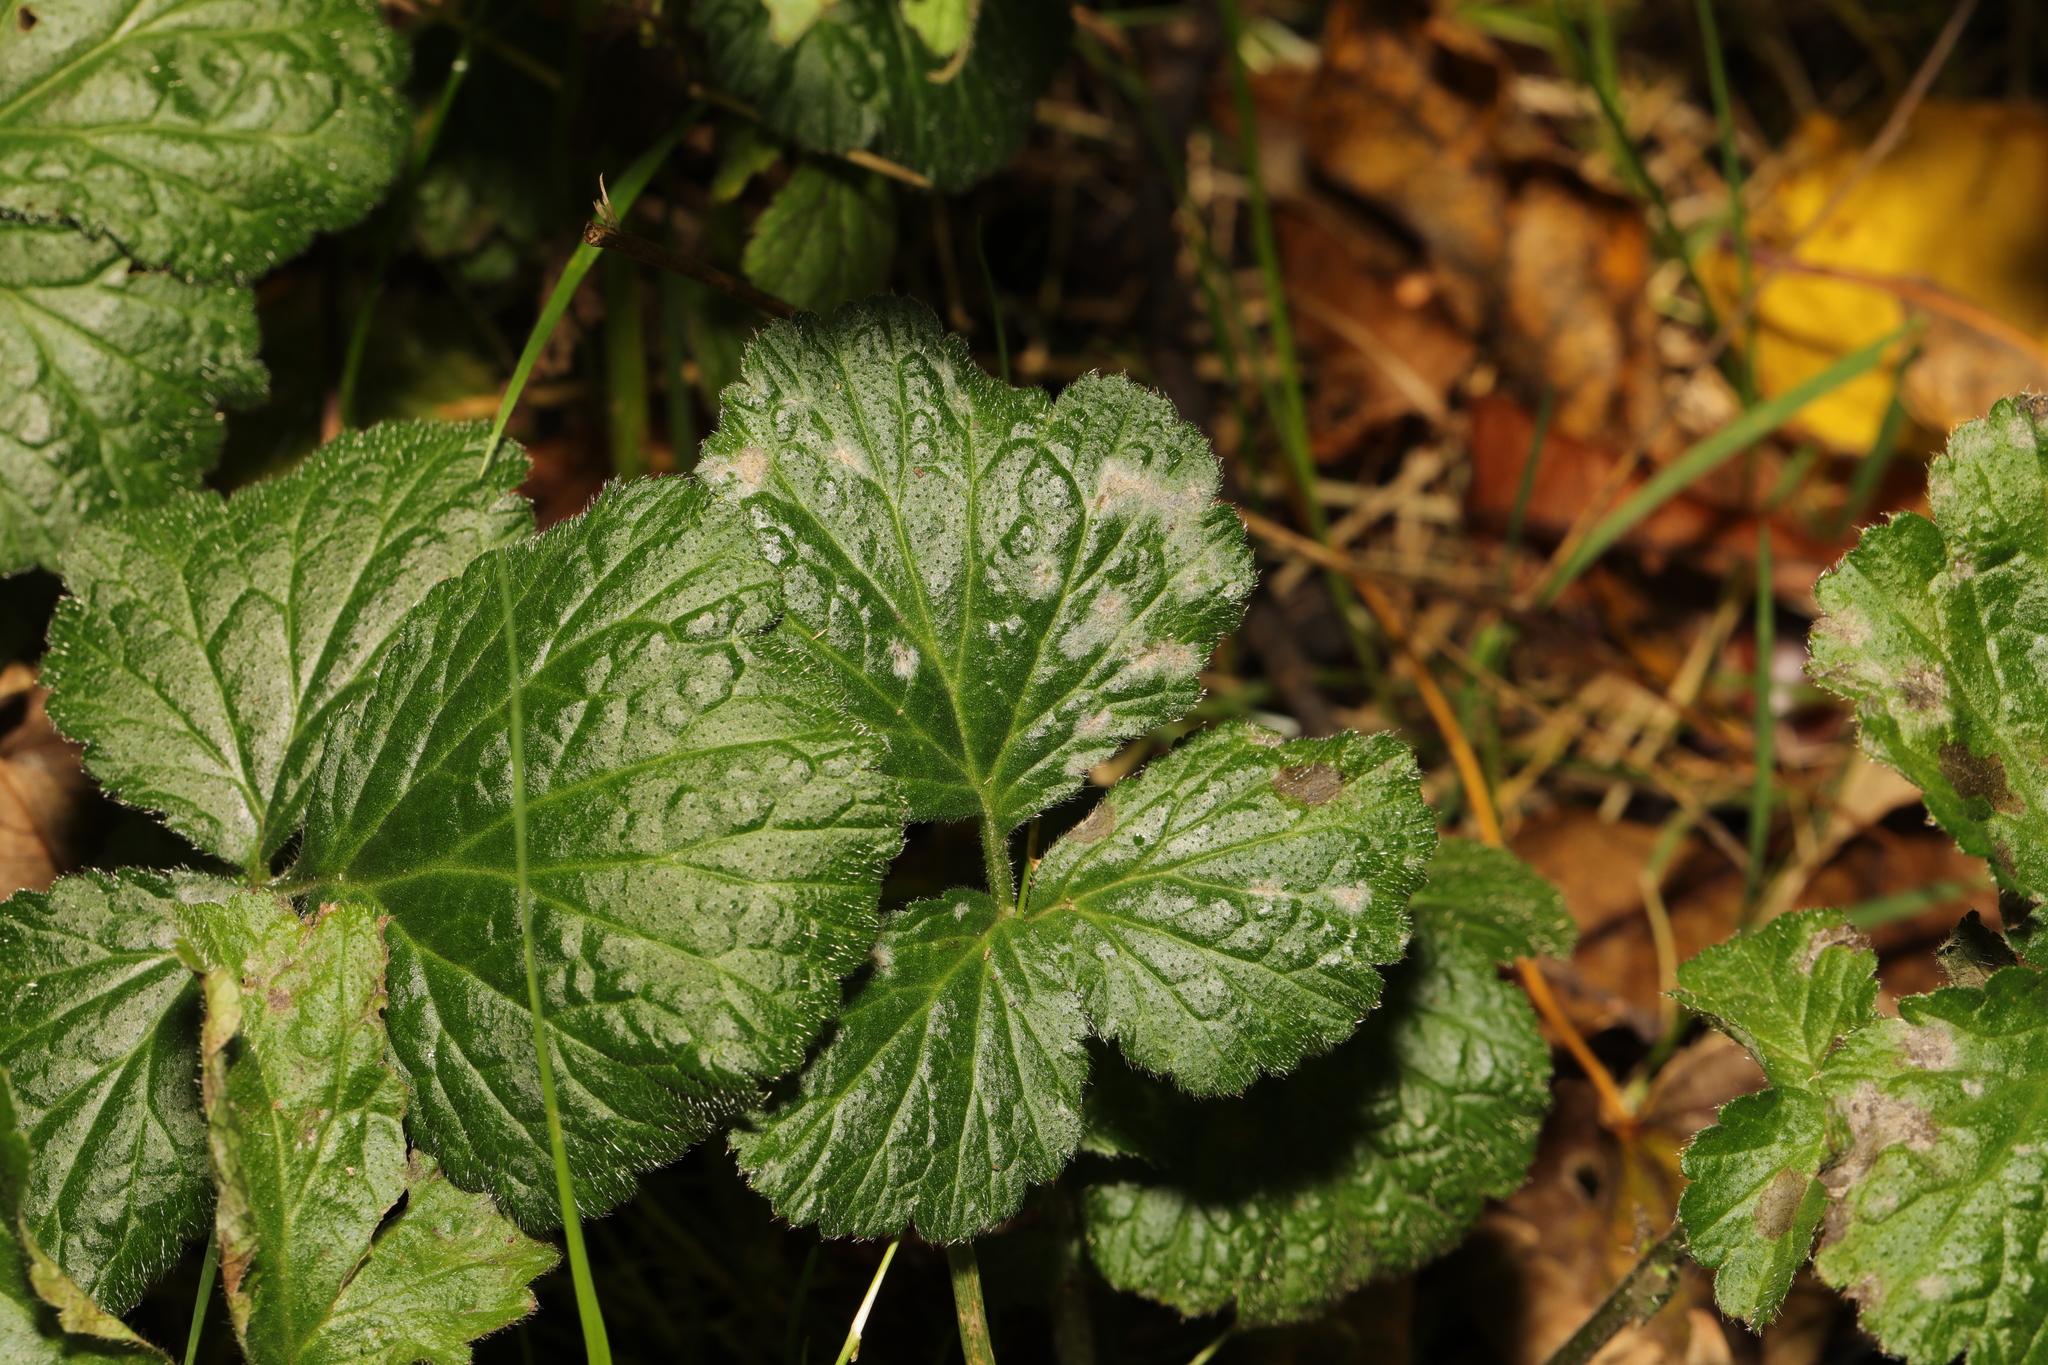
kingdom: Fungi
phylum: Ascomycota
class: Leotiomycetes
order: Helotiales
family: Erysiphaceae
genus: Podosphaera
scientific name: Podosphaera aphanis
